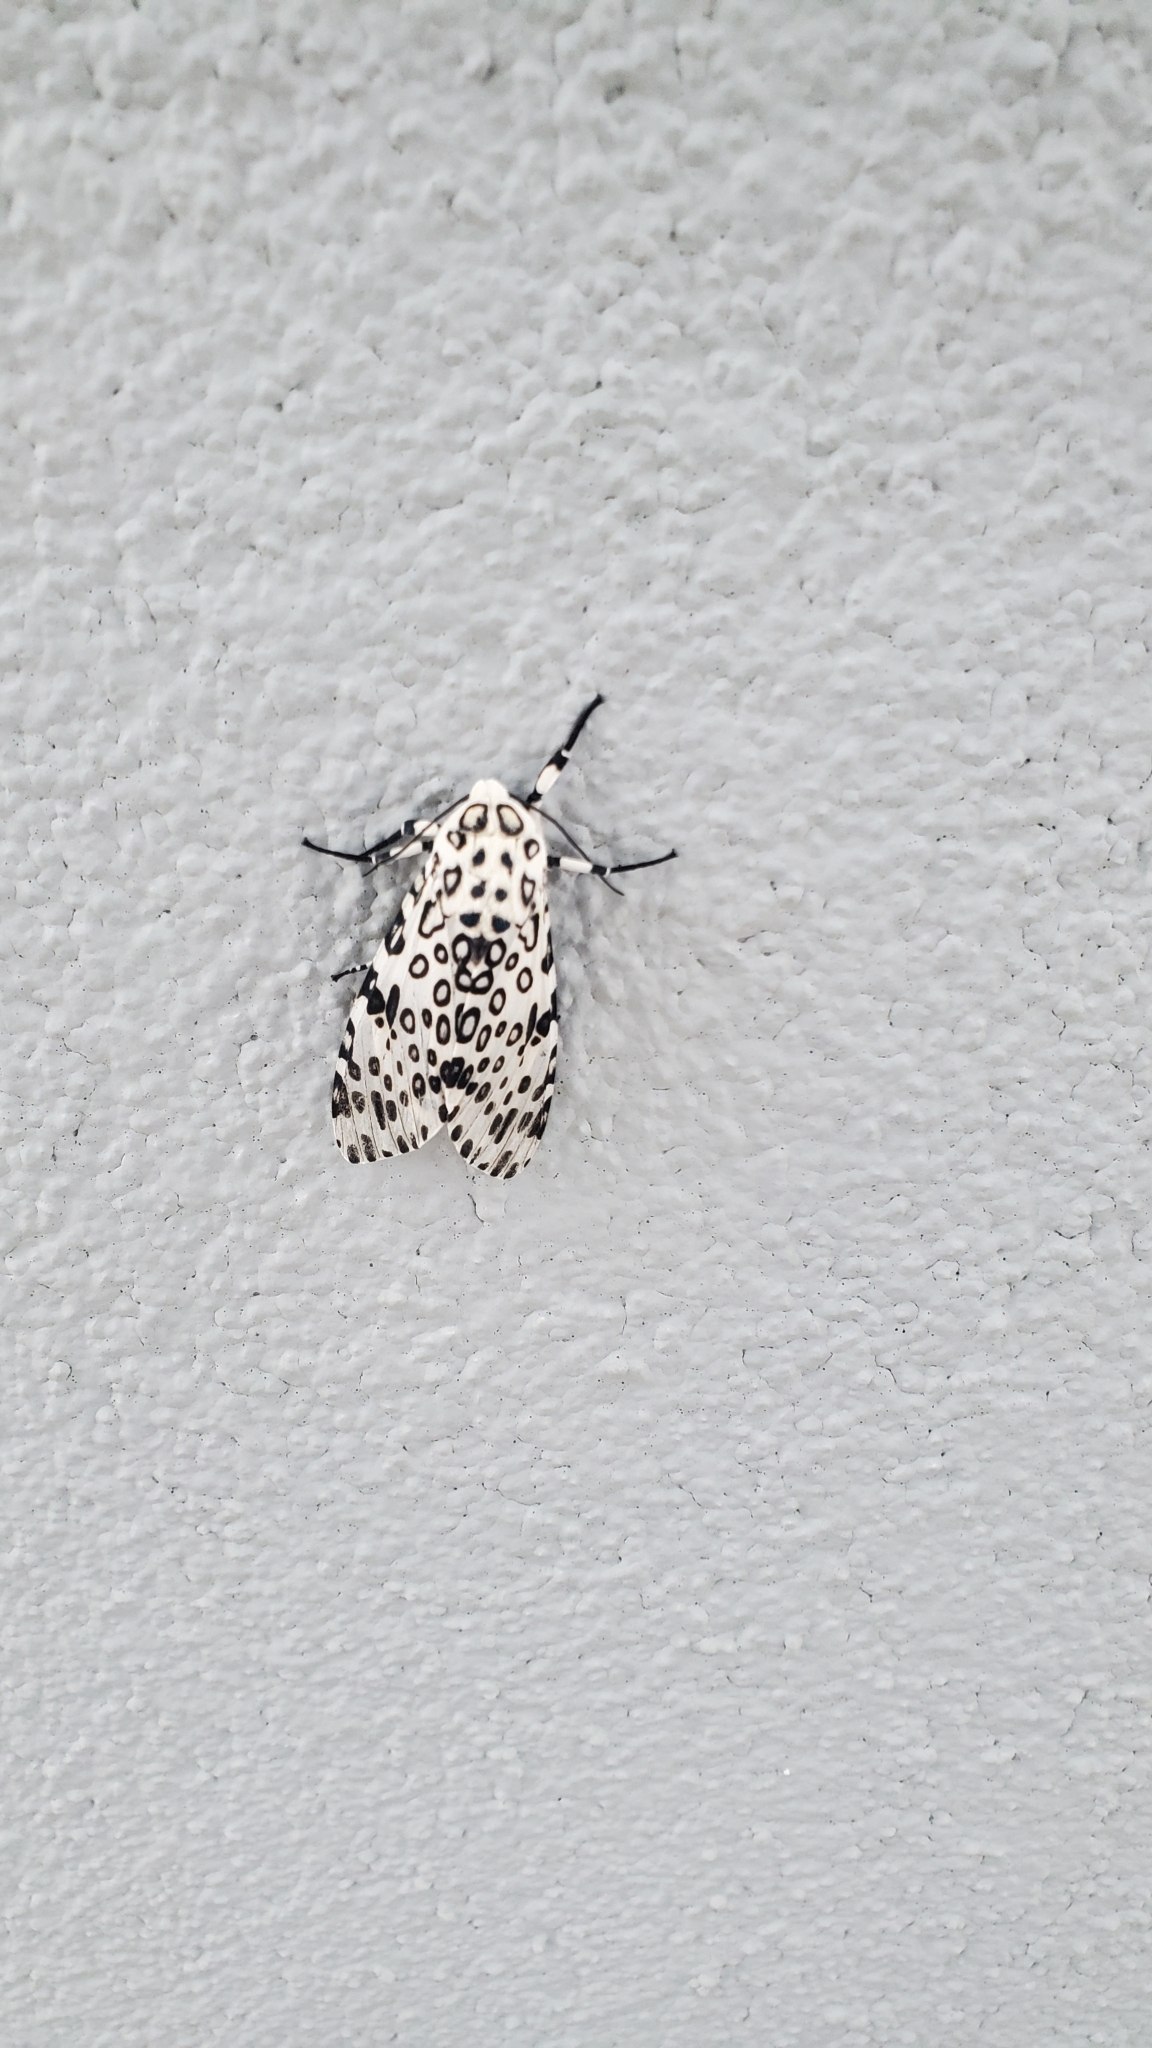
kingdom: Animalia
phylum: Arthropoda
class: Insecta
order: Lepidoptera
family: Erebidae
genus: Hypercompe
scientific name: Hypercompe scribonia
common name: Giant leopard moth
